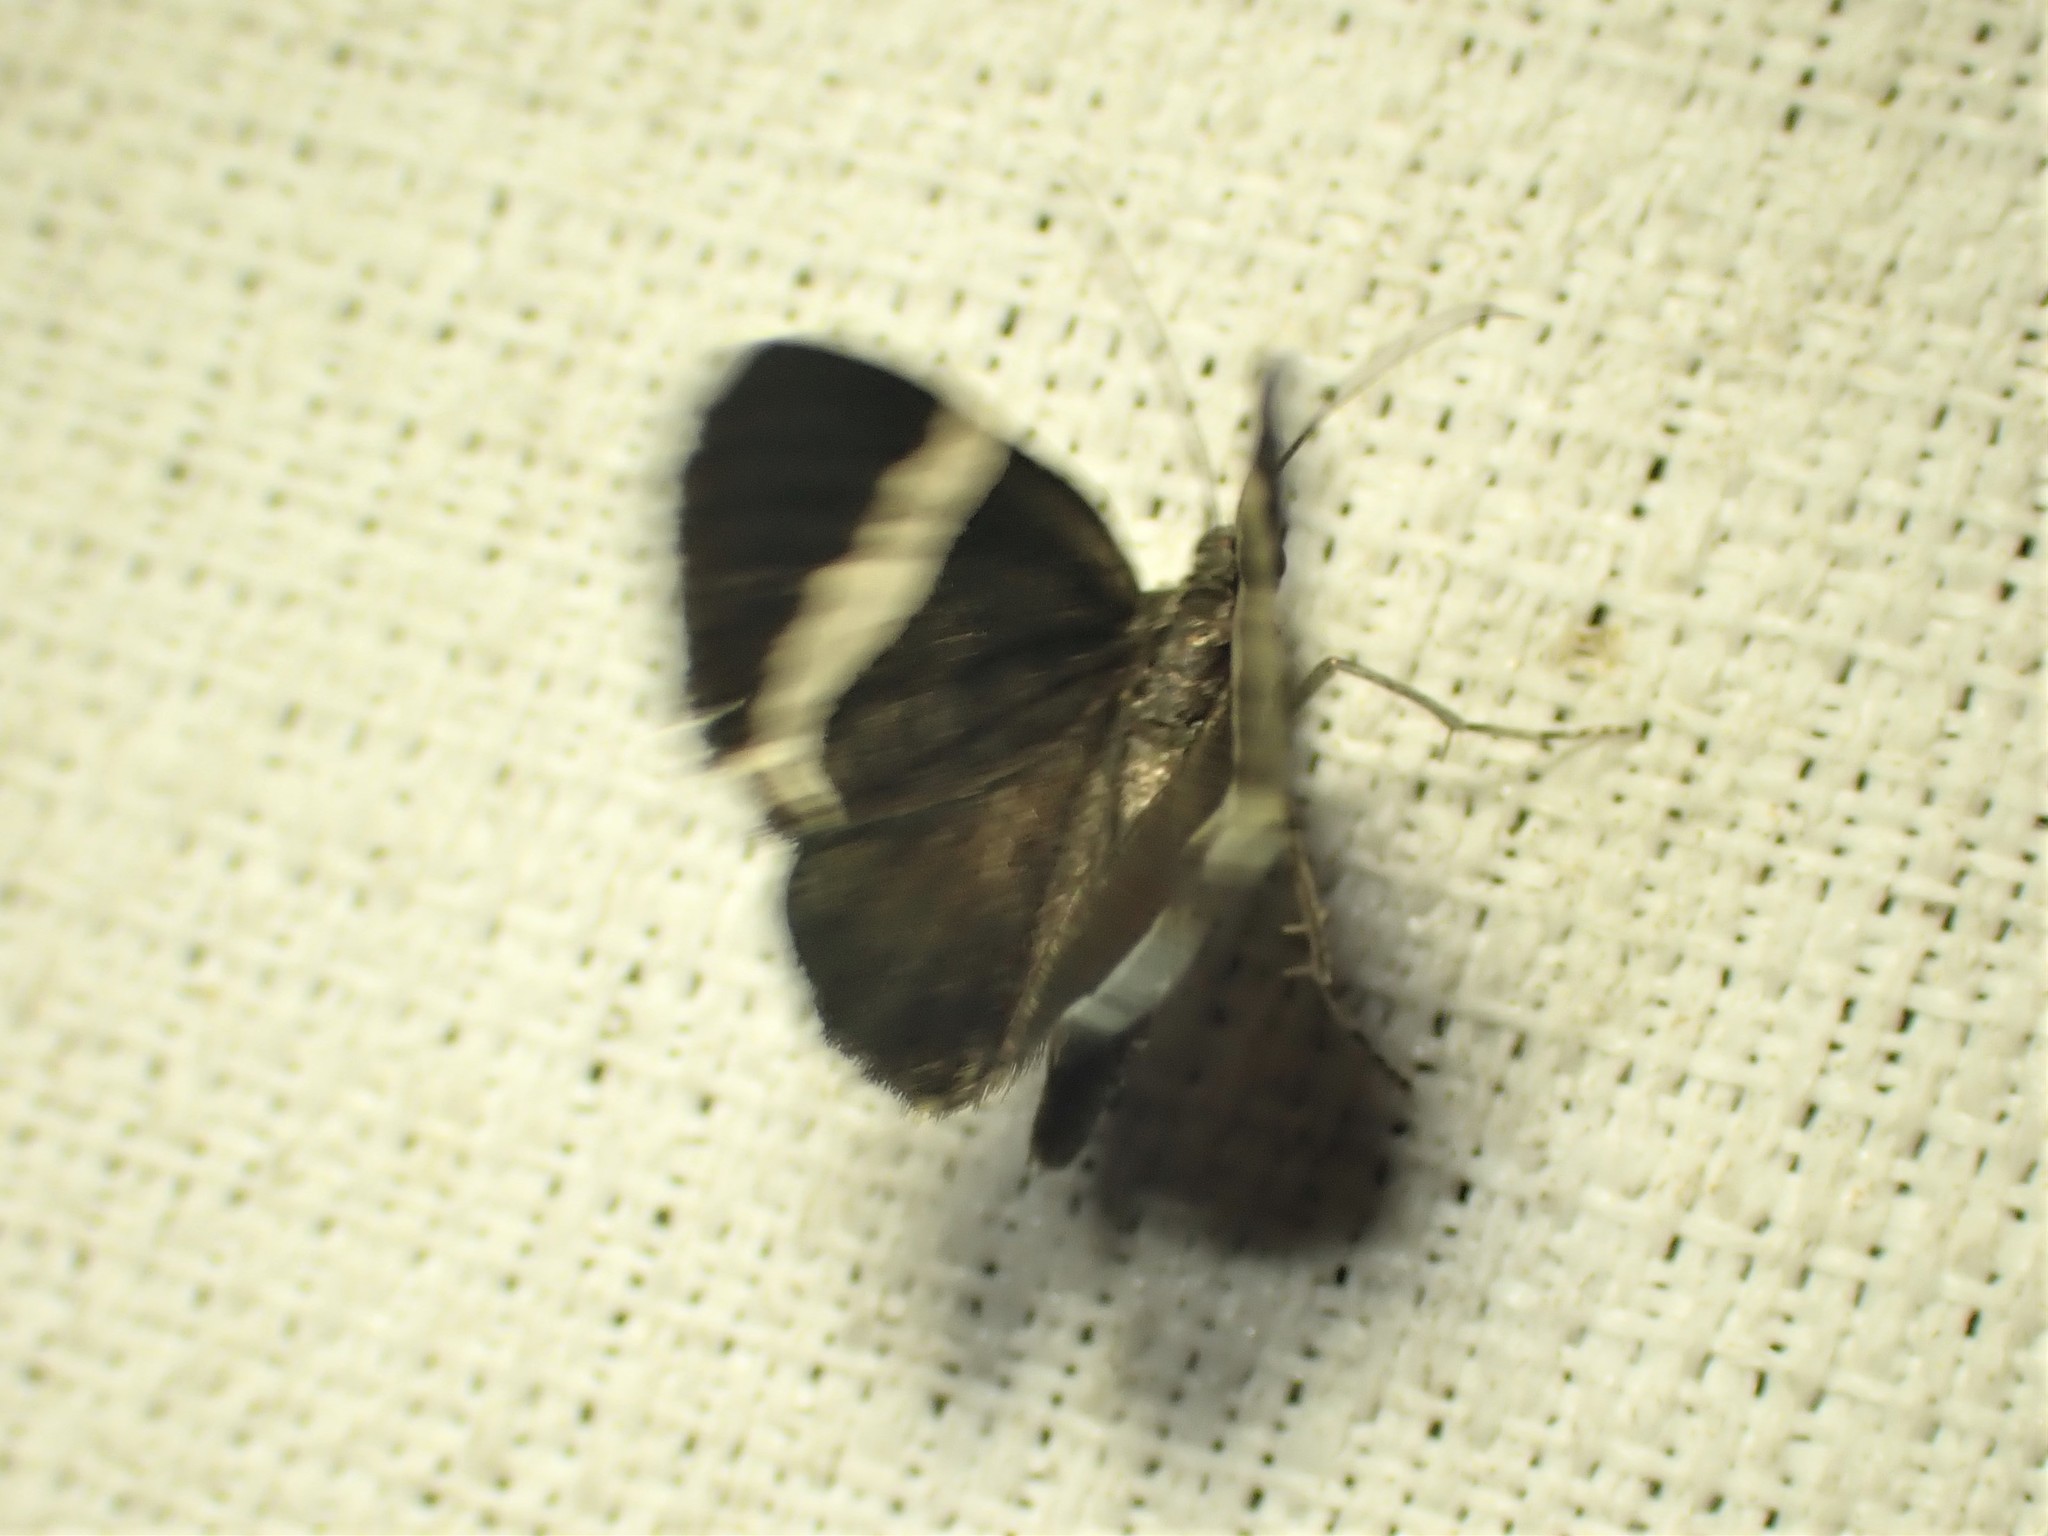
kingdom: Animalia
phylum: Arthropoda
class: Insecta
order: Lepidoptera
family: Geometridae
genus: Trichodezia
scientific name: Trichodezia albovittata
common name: White striped black
